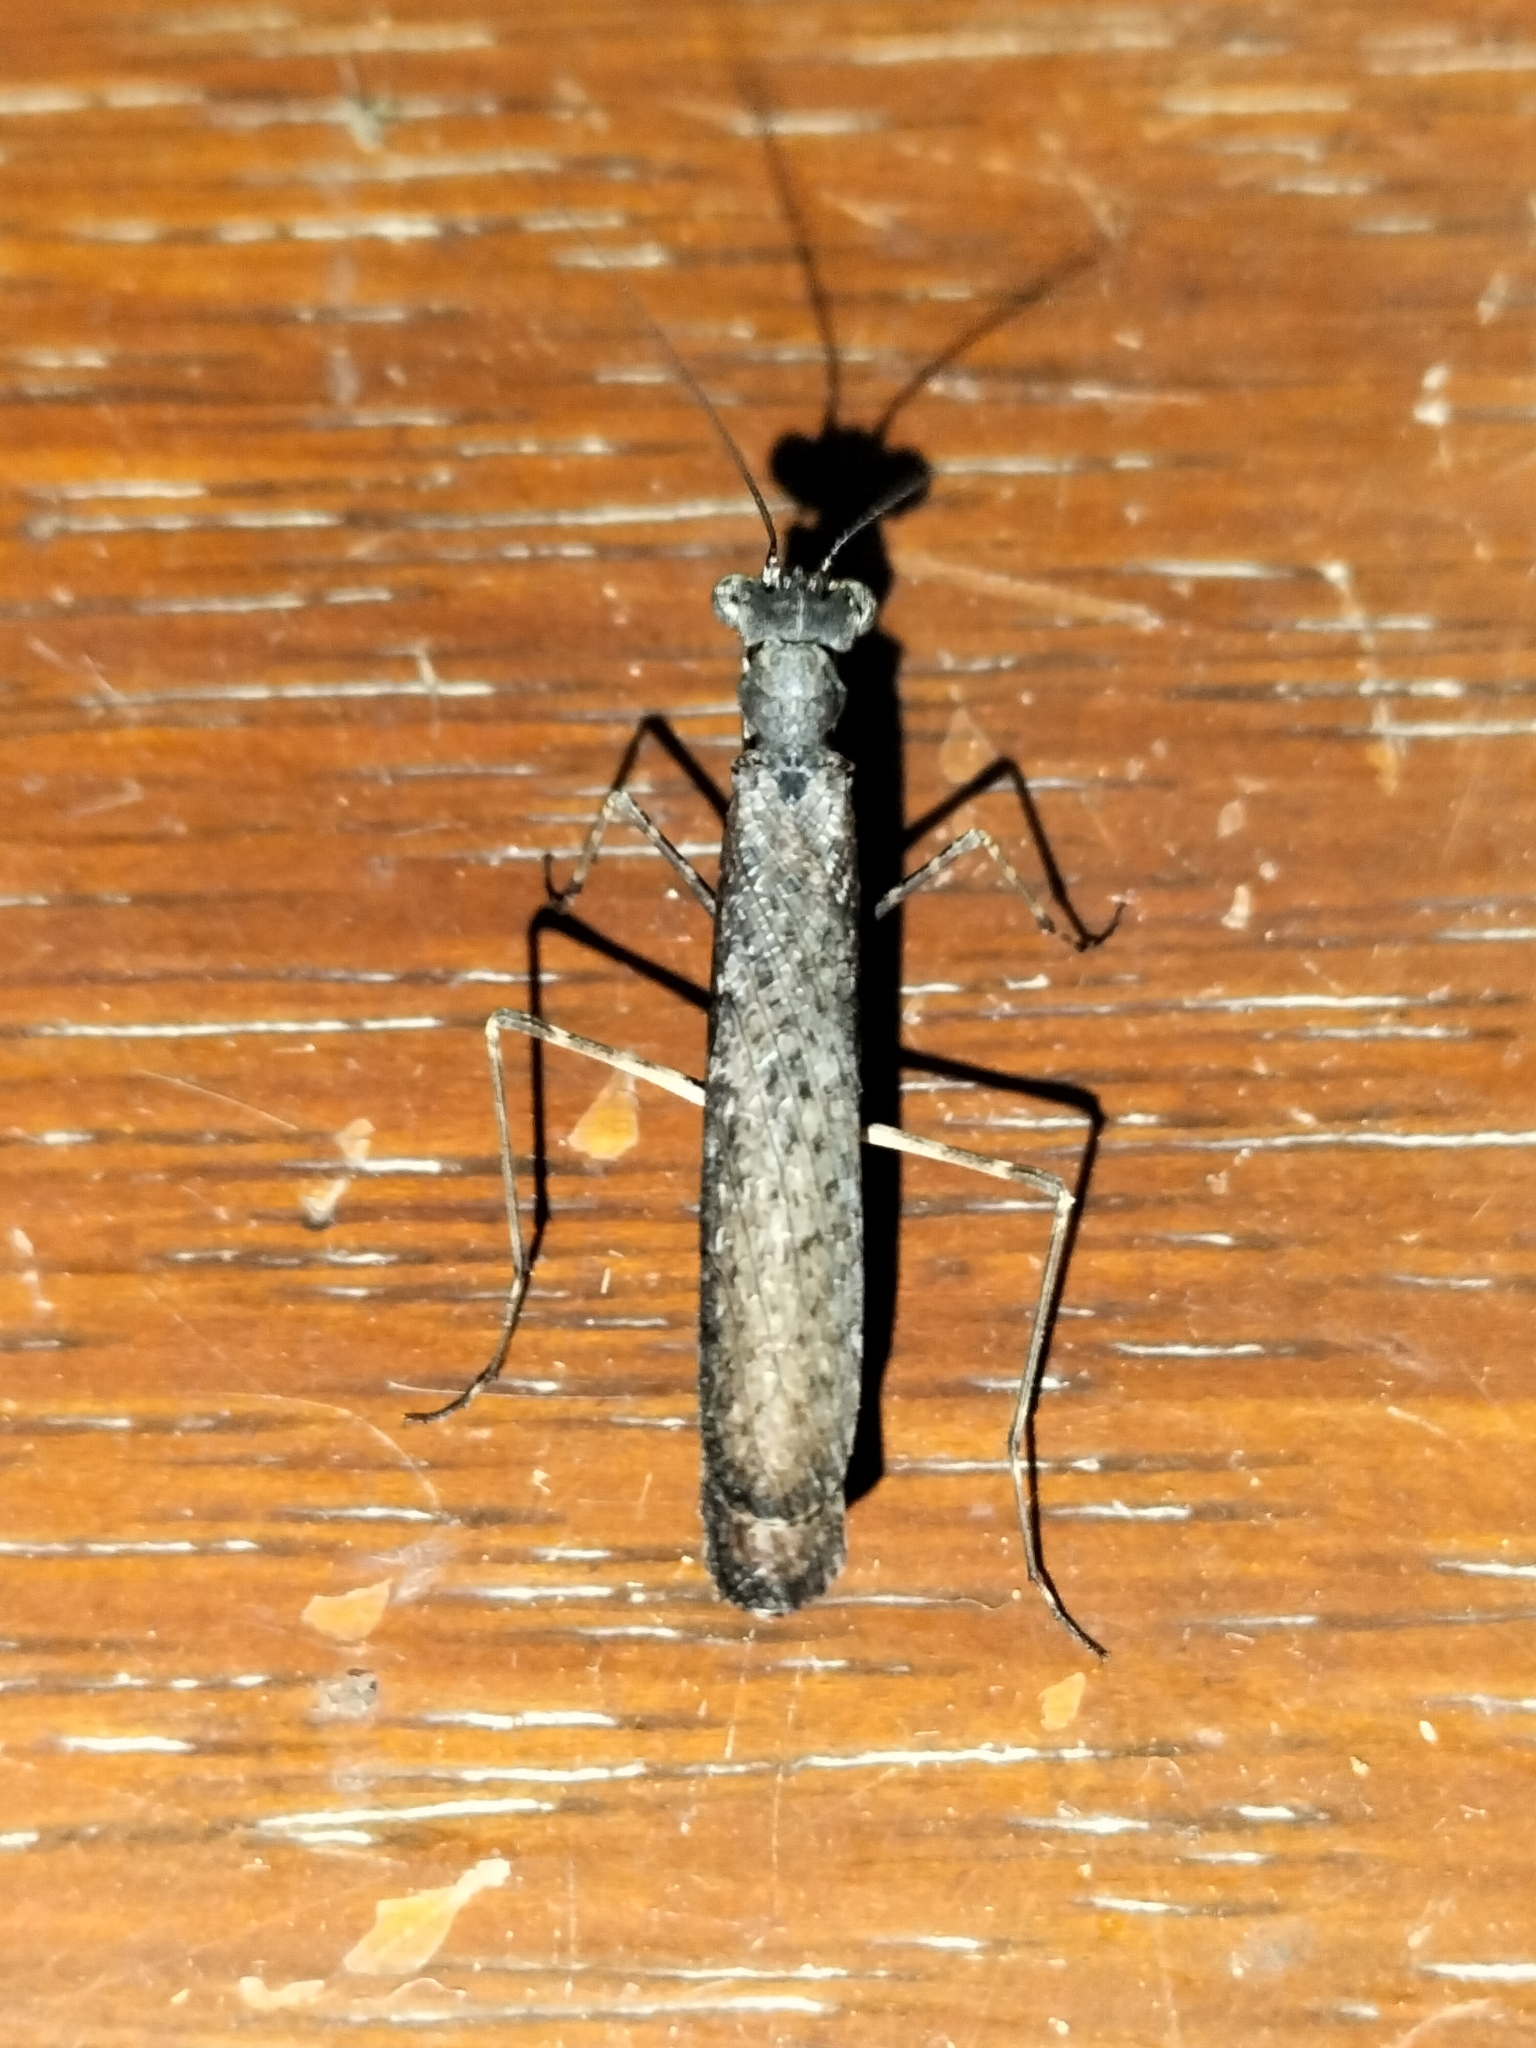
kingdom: Animalia
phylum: Arthropoda
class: Insecta
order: Mantodea
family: Nanomantidae
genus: Paraoxypilus
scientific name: Paraoxypilus kimberleyensis
